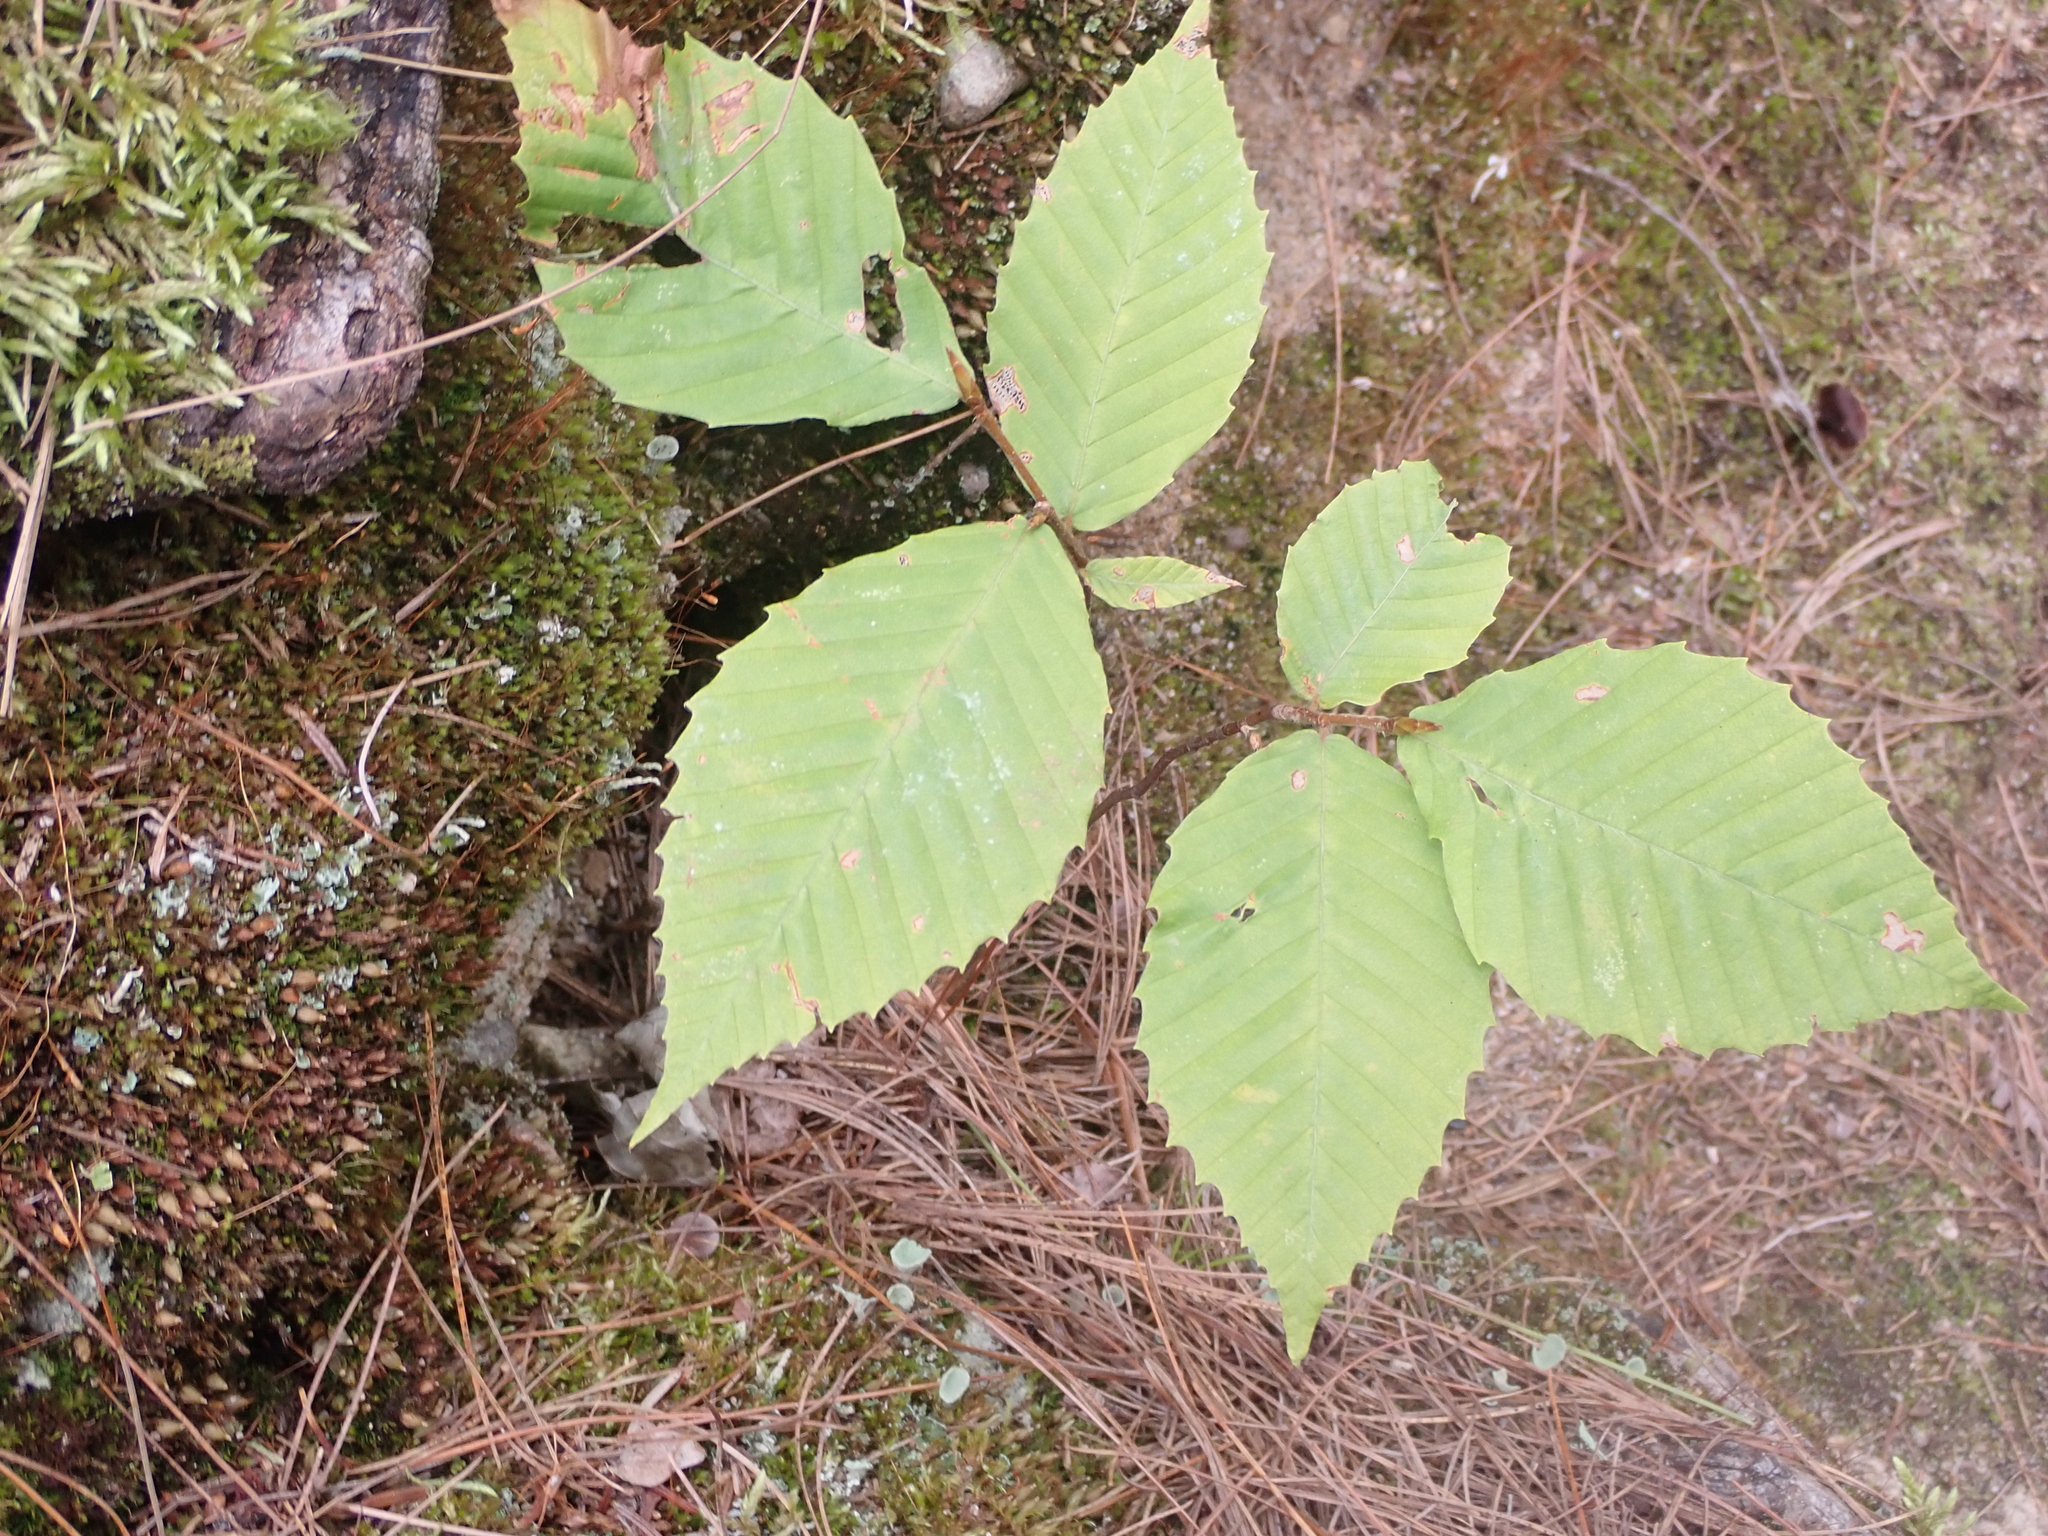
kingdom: Plantae
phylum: Tracheophyta
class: Magnoliopsida
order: Fagales
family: Fagaceae
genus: Fagus
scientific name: Fagus grandifolia
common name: American beech
